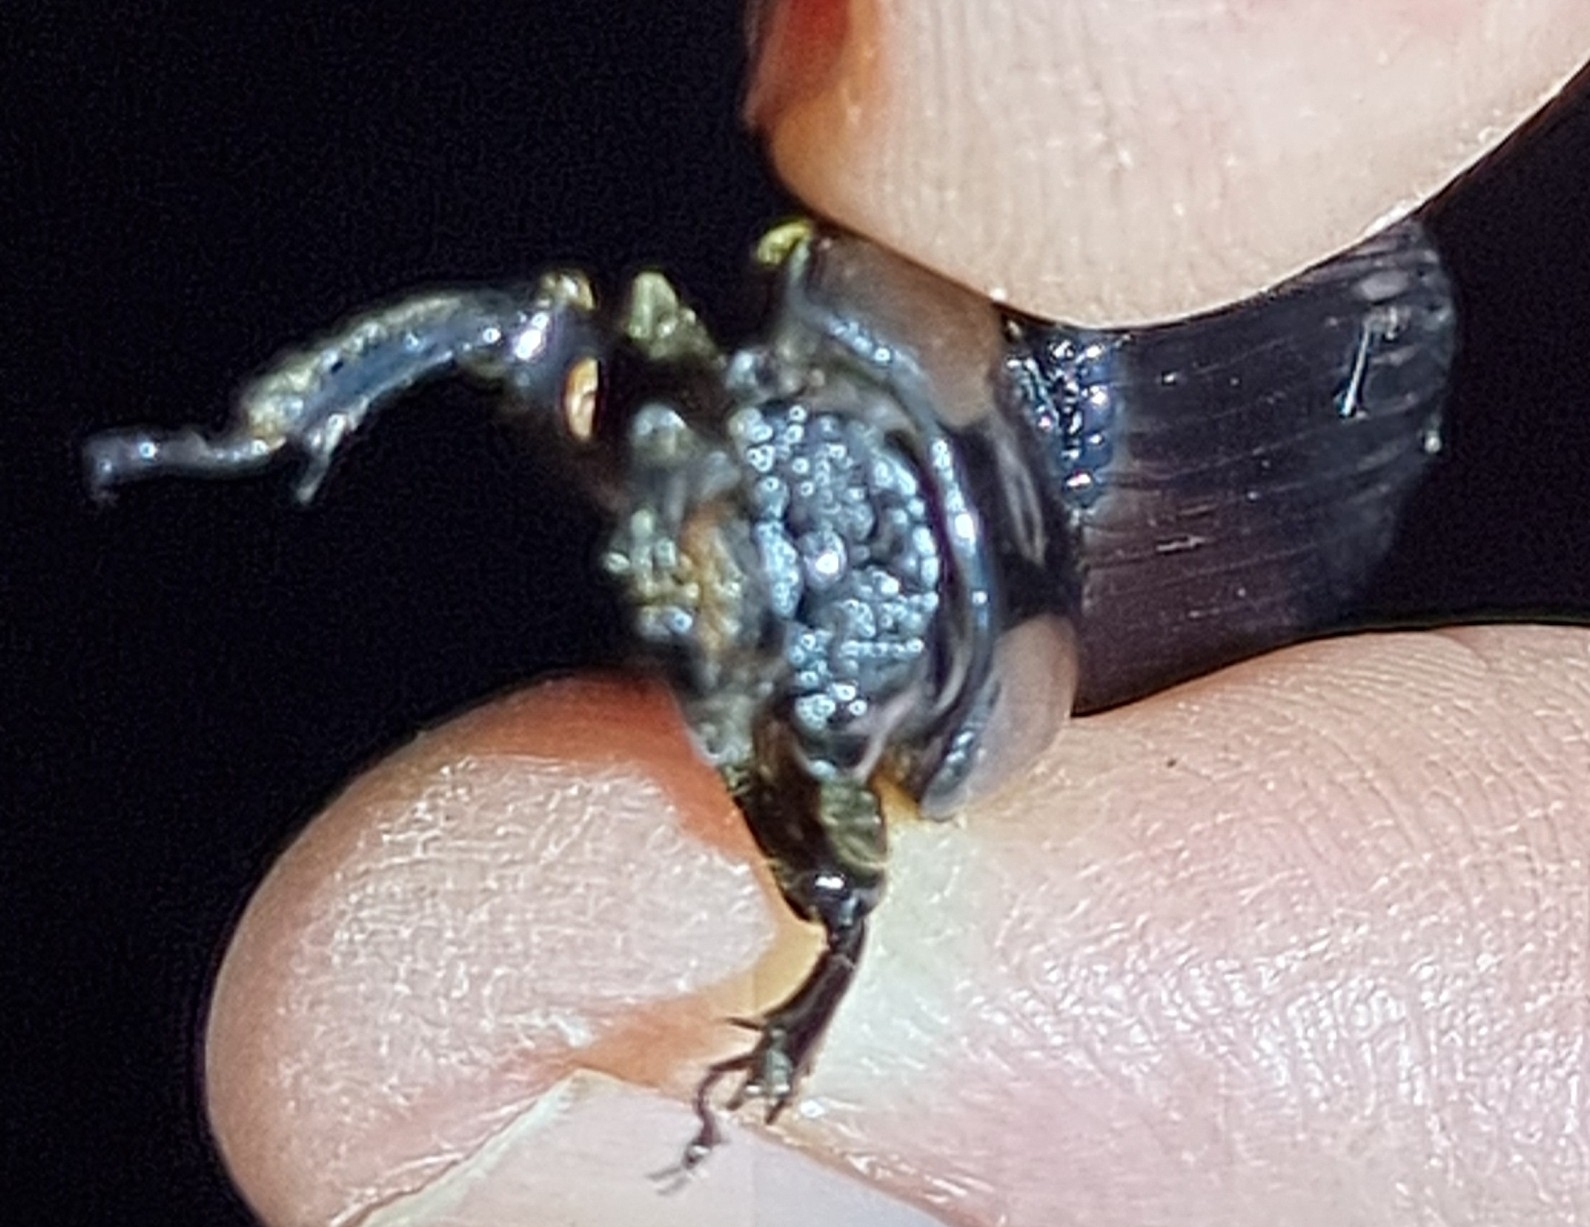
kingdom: Animalia
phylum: Arthropoda
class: Insecta
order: Coleoptera
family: Passalidae
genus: Pharochilus
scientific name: Pharochilus dilatatus
